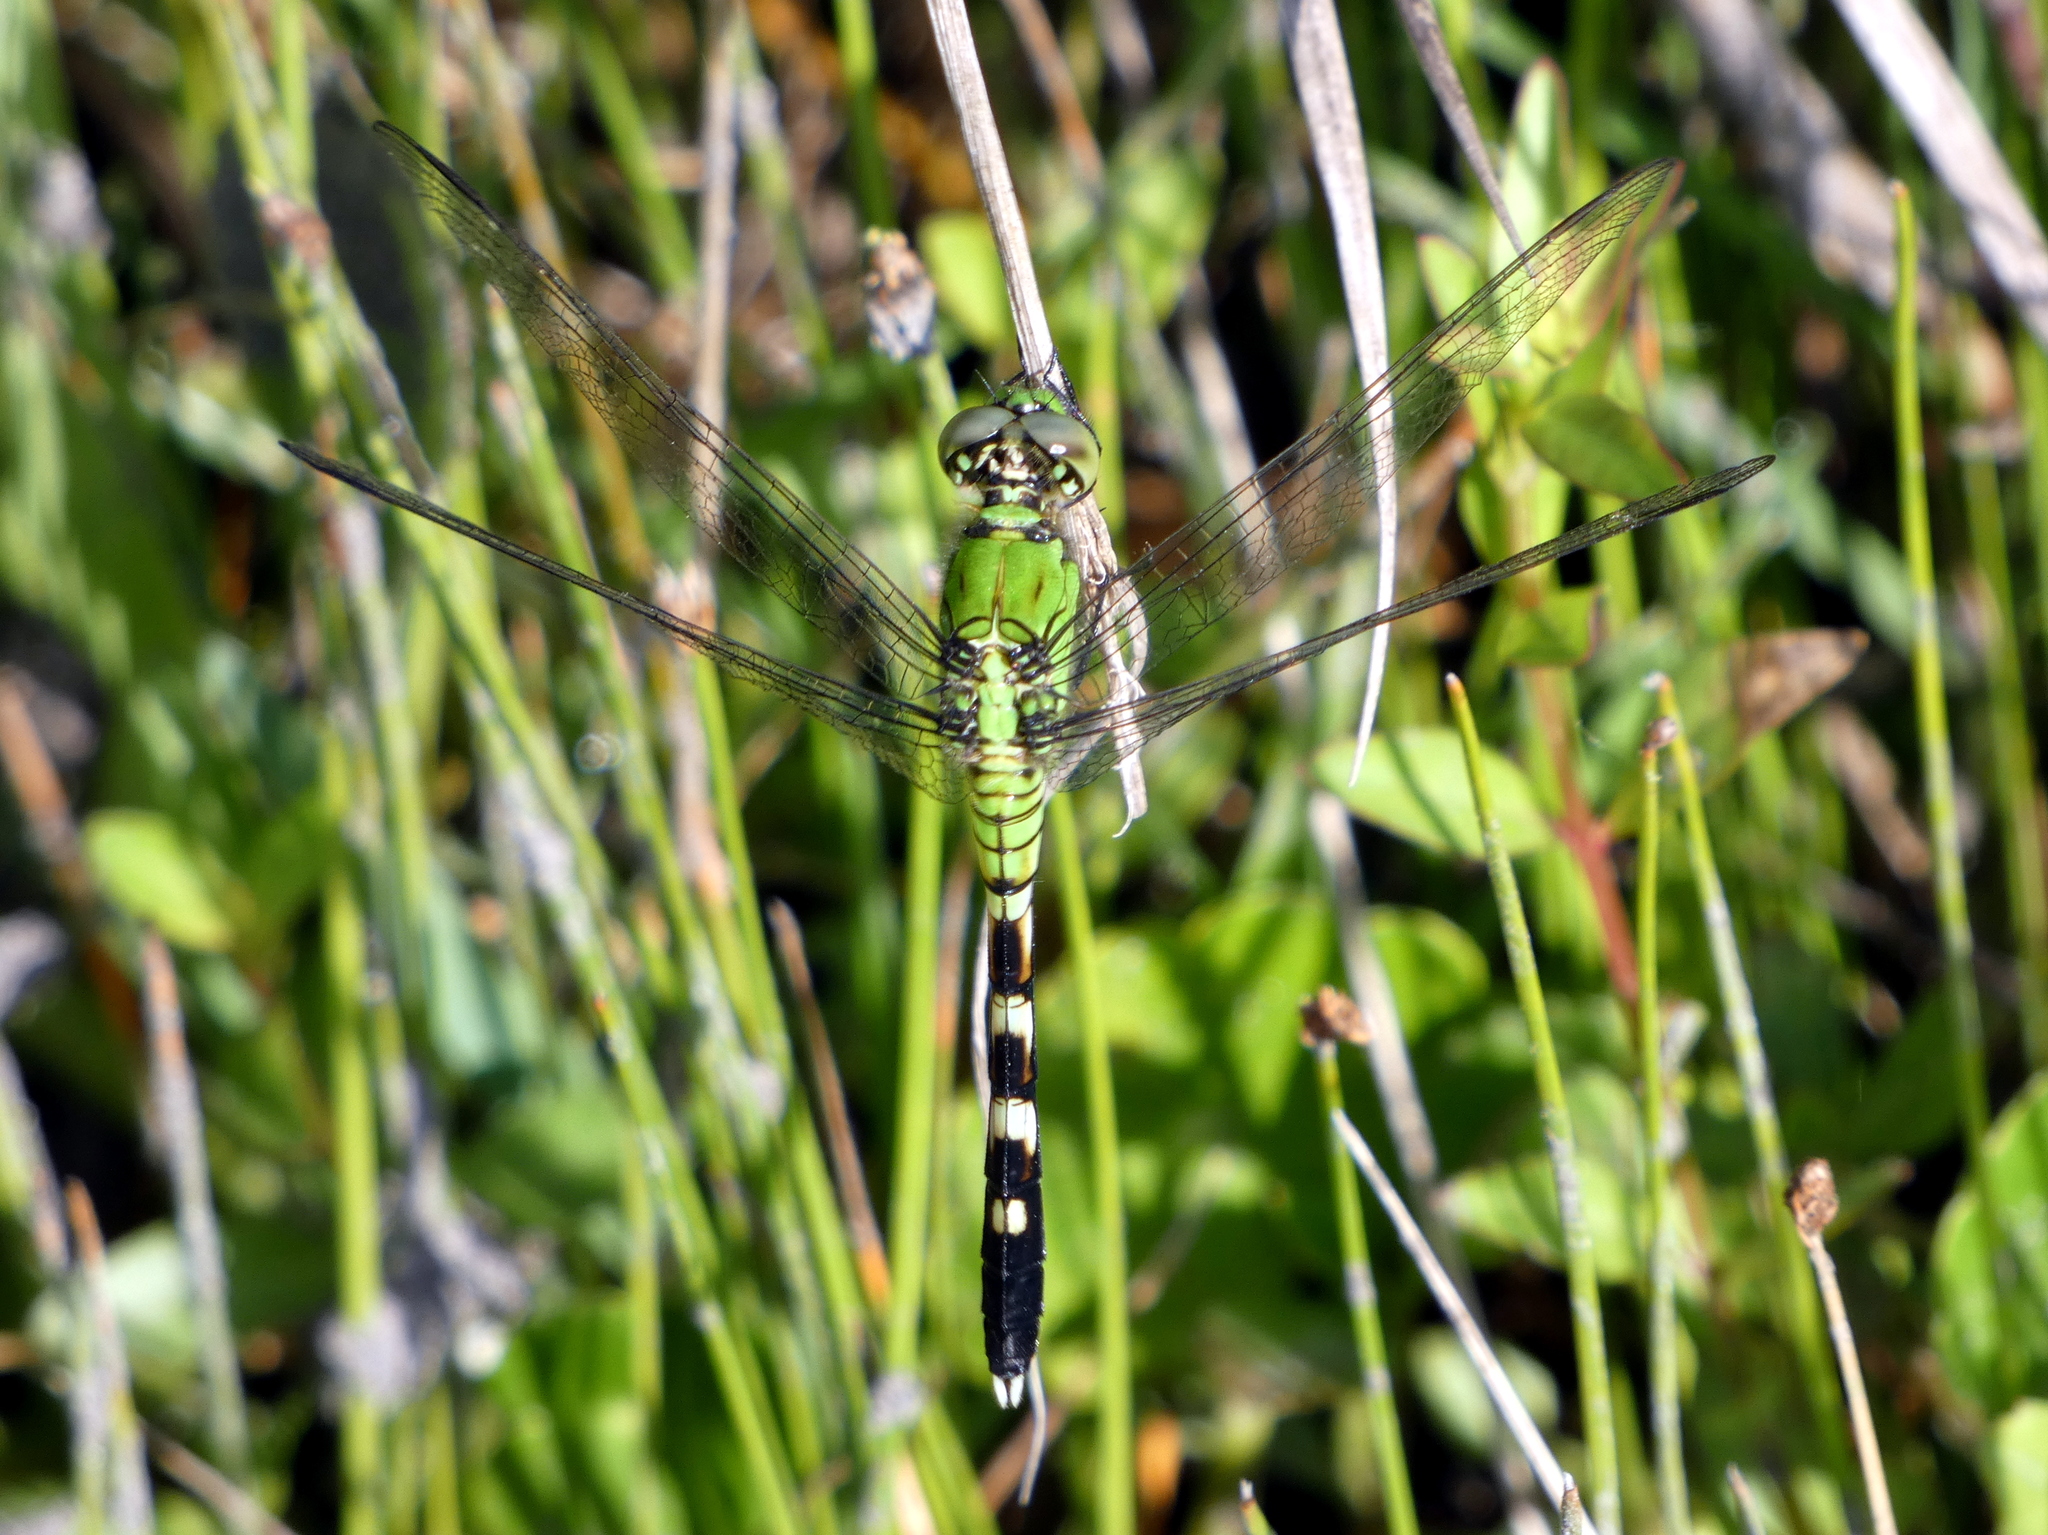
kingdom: Animalia
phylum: Arthropoda
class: Insecta
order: Odonata
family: Libellulidae
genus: Erythemis
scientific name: Erythemis simplicicollis
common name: Eastern pondhawk
